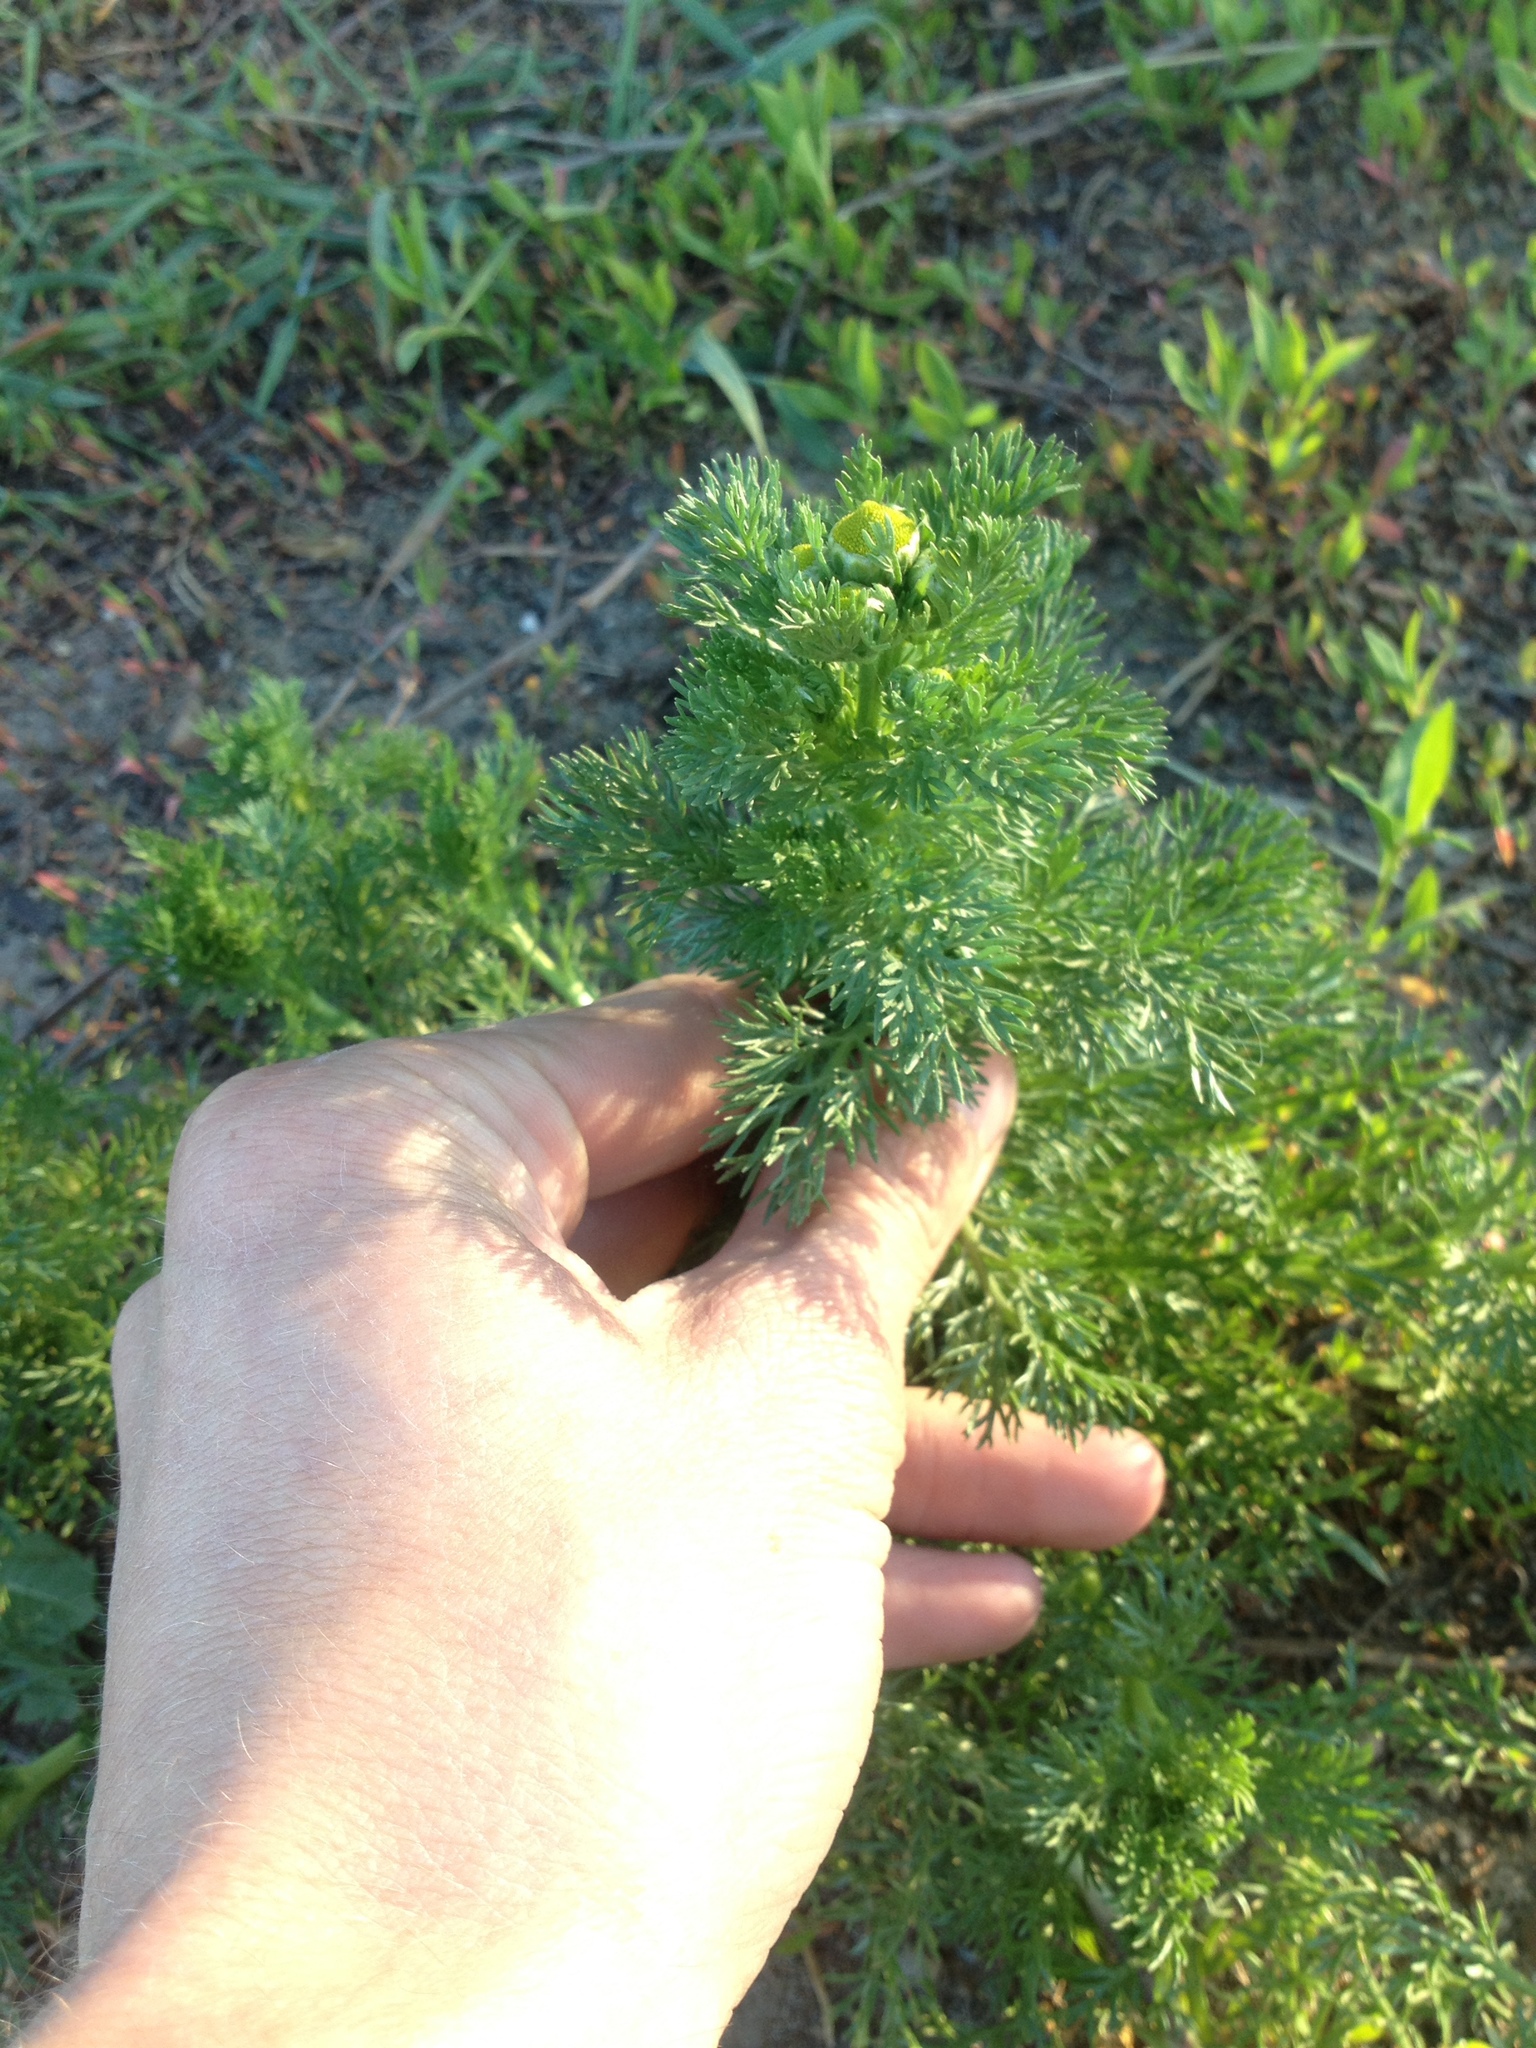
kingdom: Plantae
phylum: Tracheophyta
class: Magnoliopsida
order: Asterales
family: Asteraceae
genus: Tripleurospermum
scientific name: Tripleurospermum inodorum
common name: Scentless mayweed
